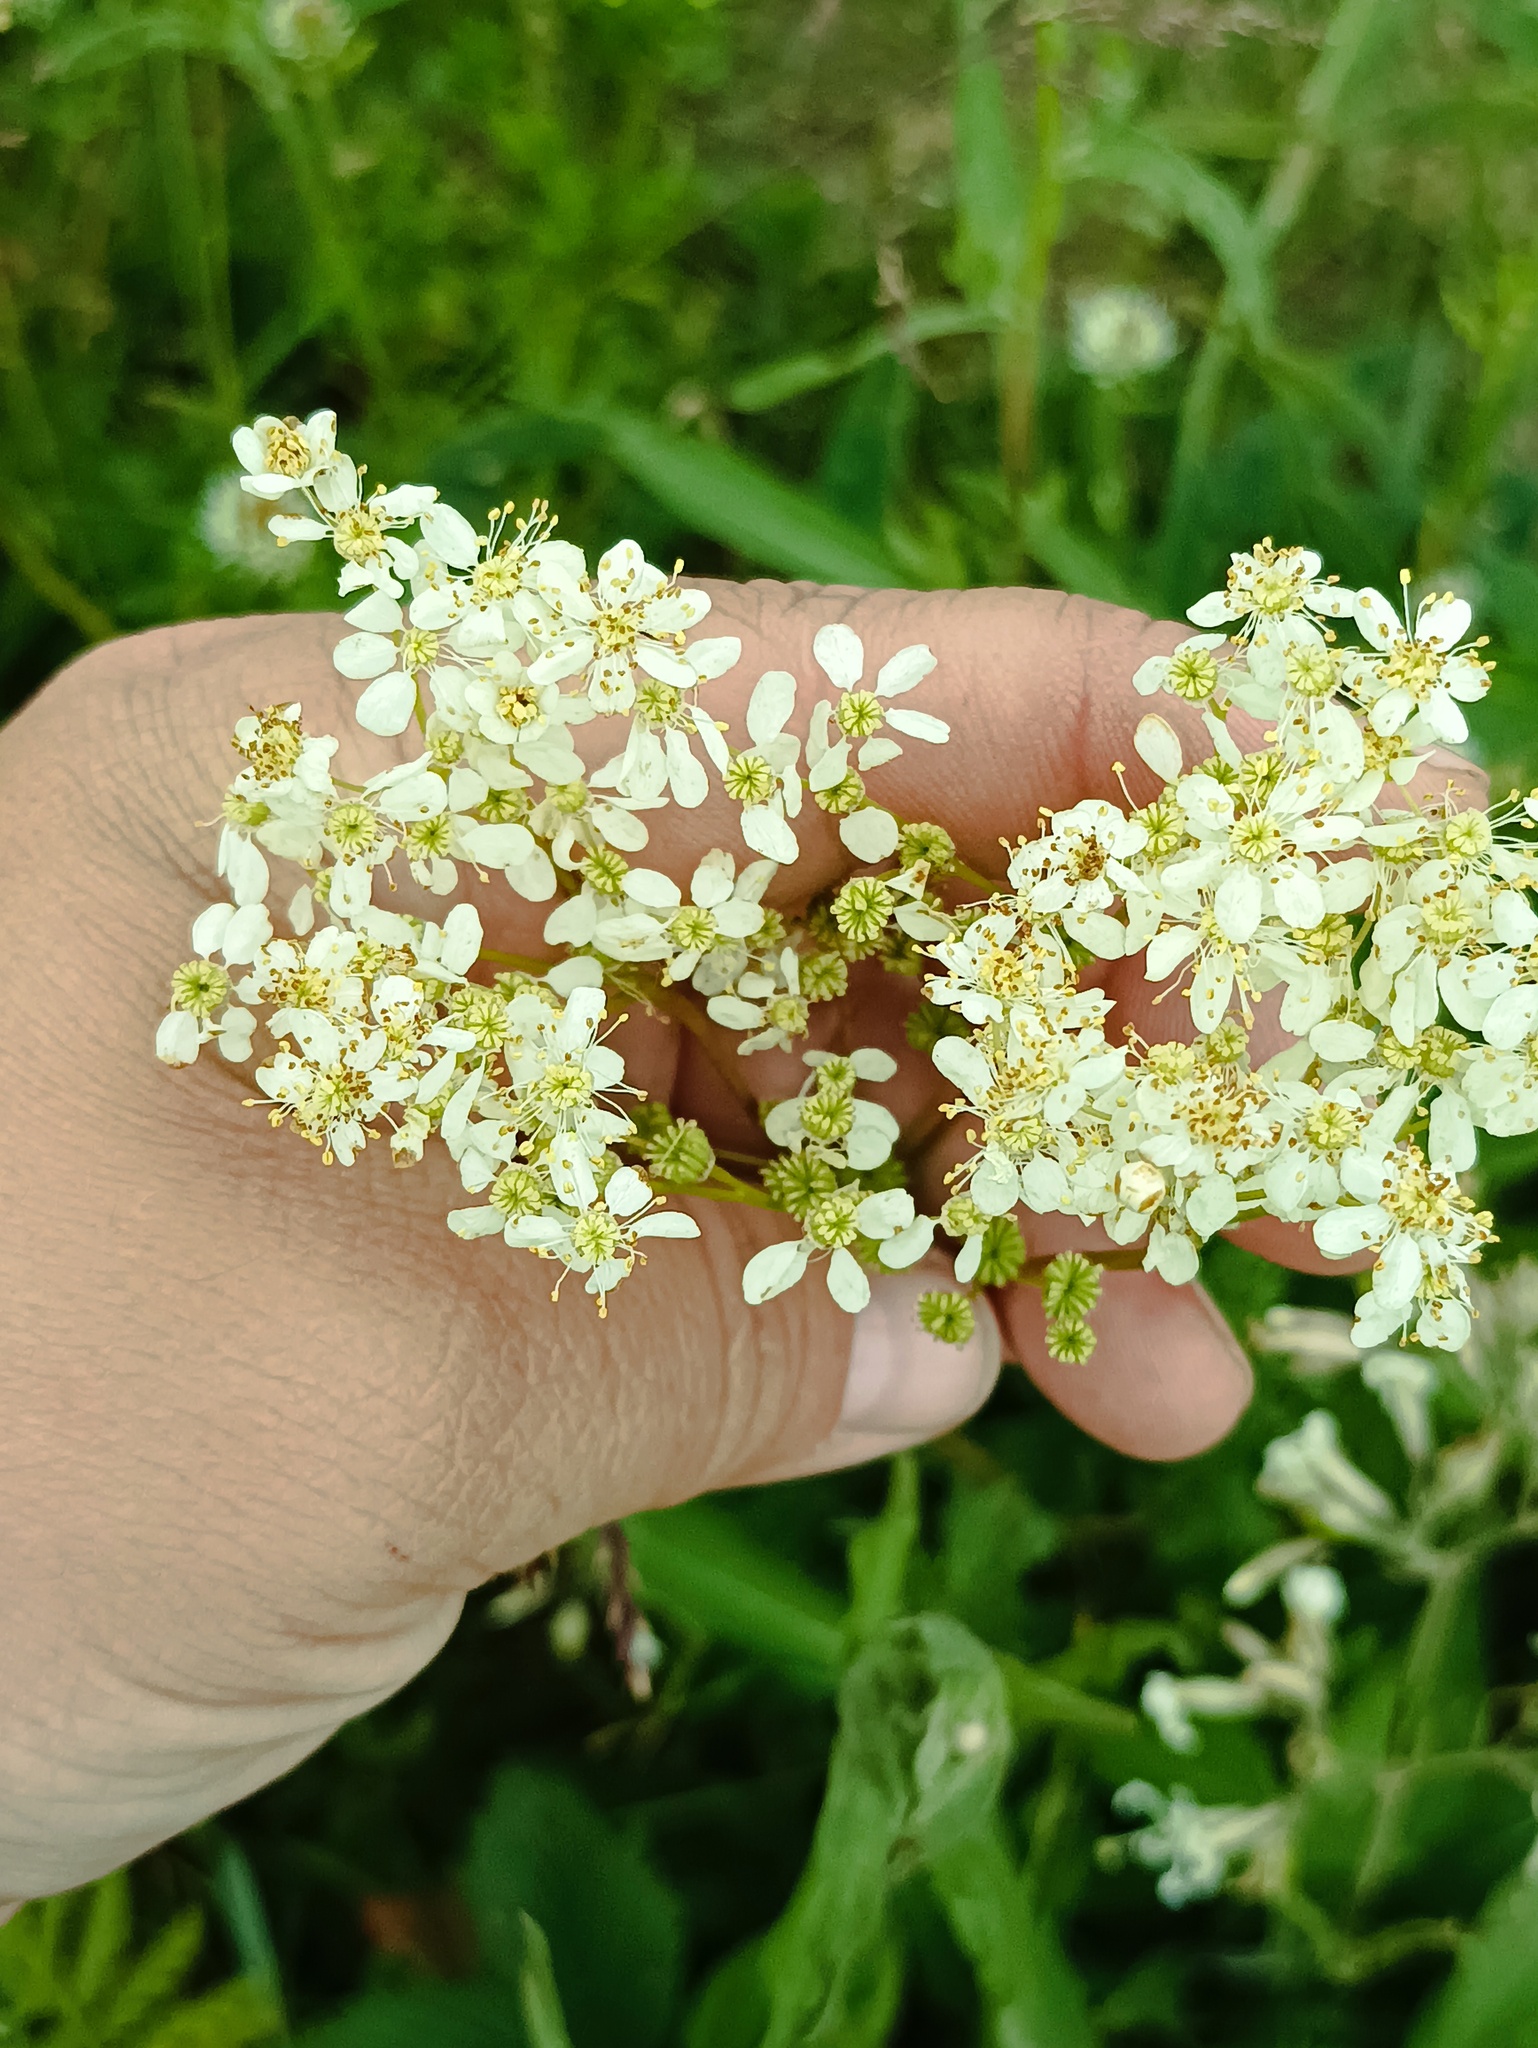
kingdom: Plantae
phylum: Tracheophyta
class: Magnoliopsida
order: Rosales
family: Rosaceae
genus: Filipendula
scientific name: Filipendula vulgaris
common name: Dropwort
